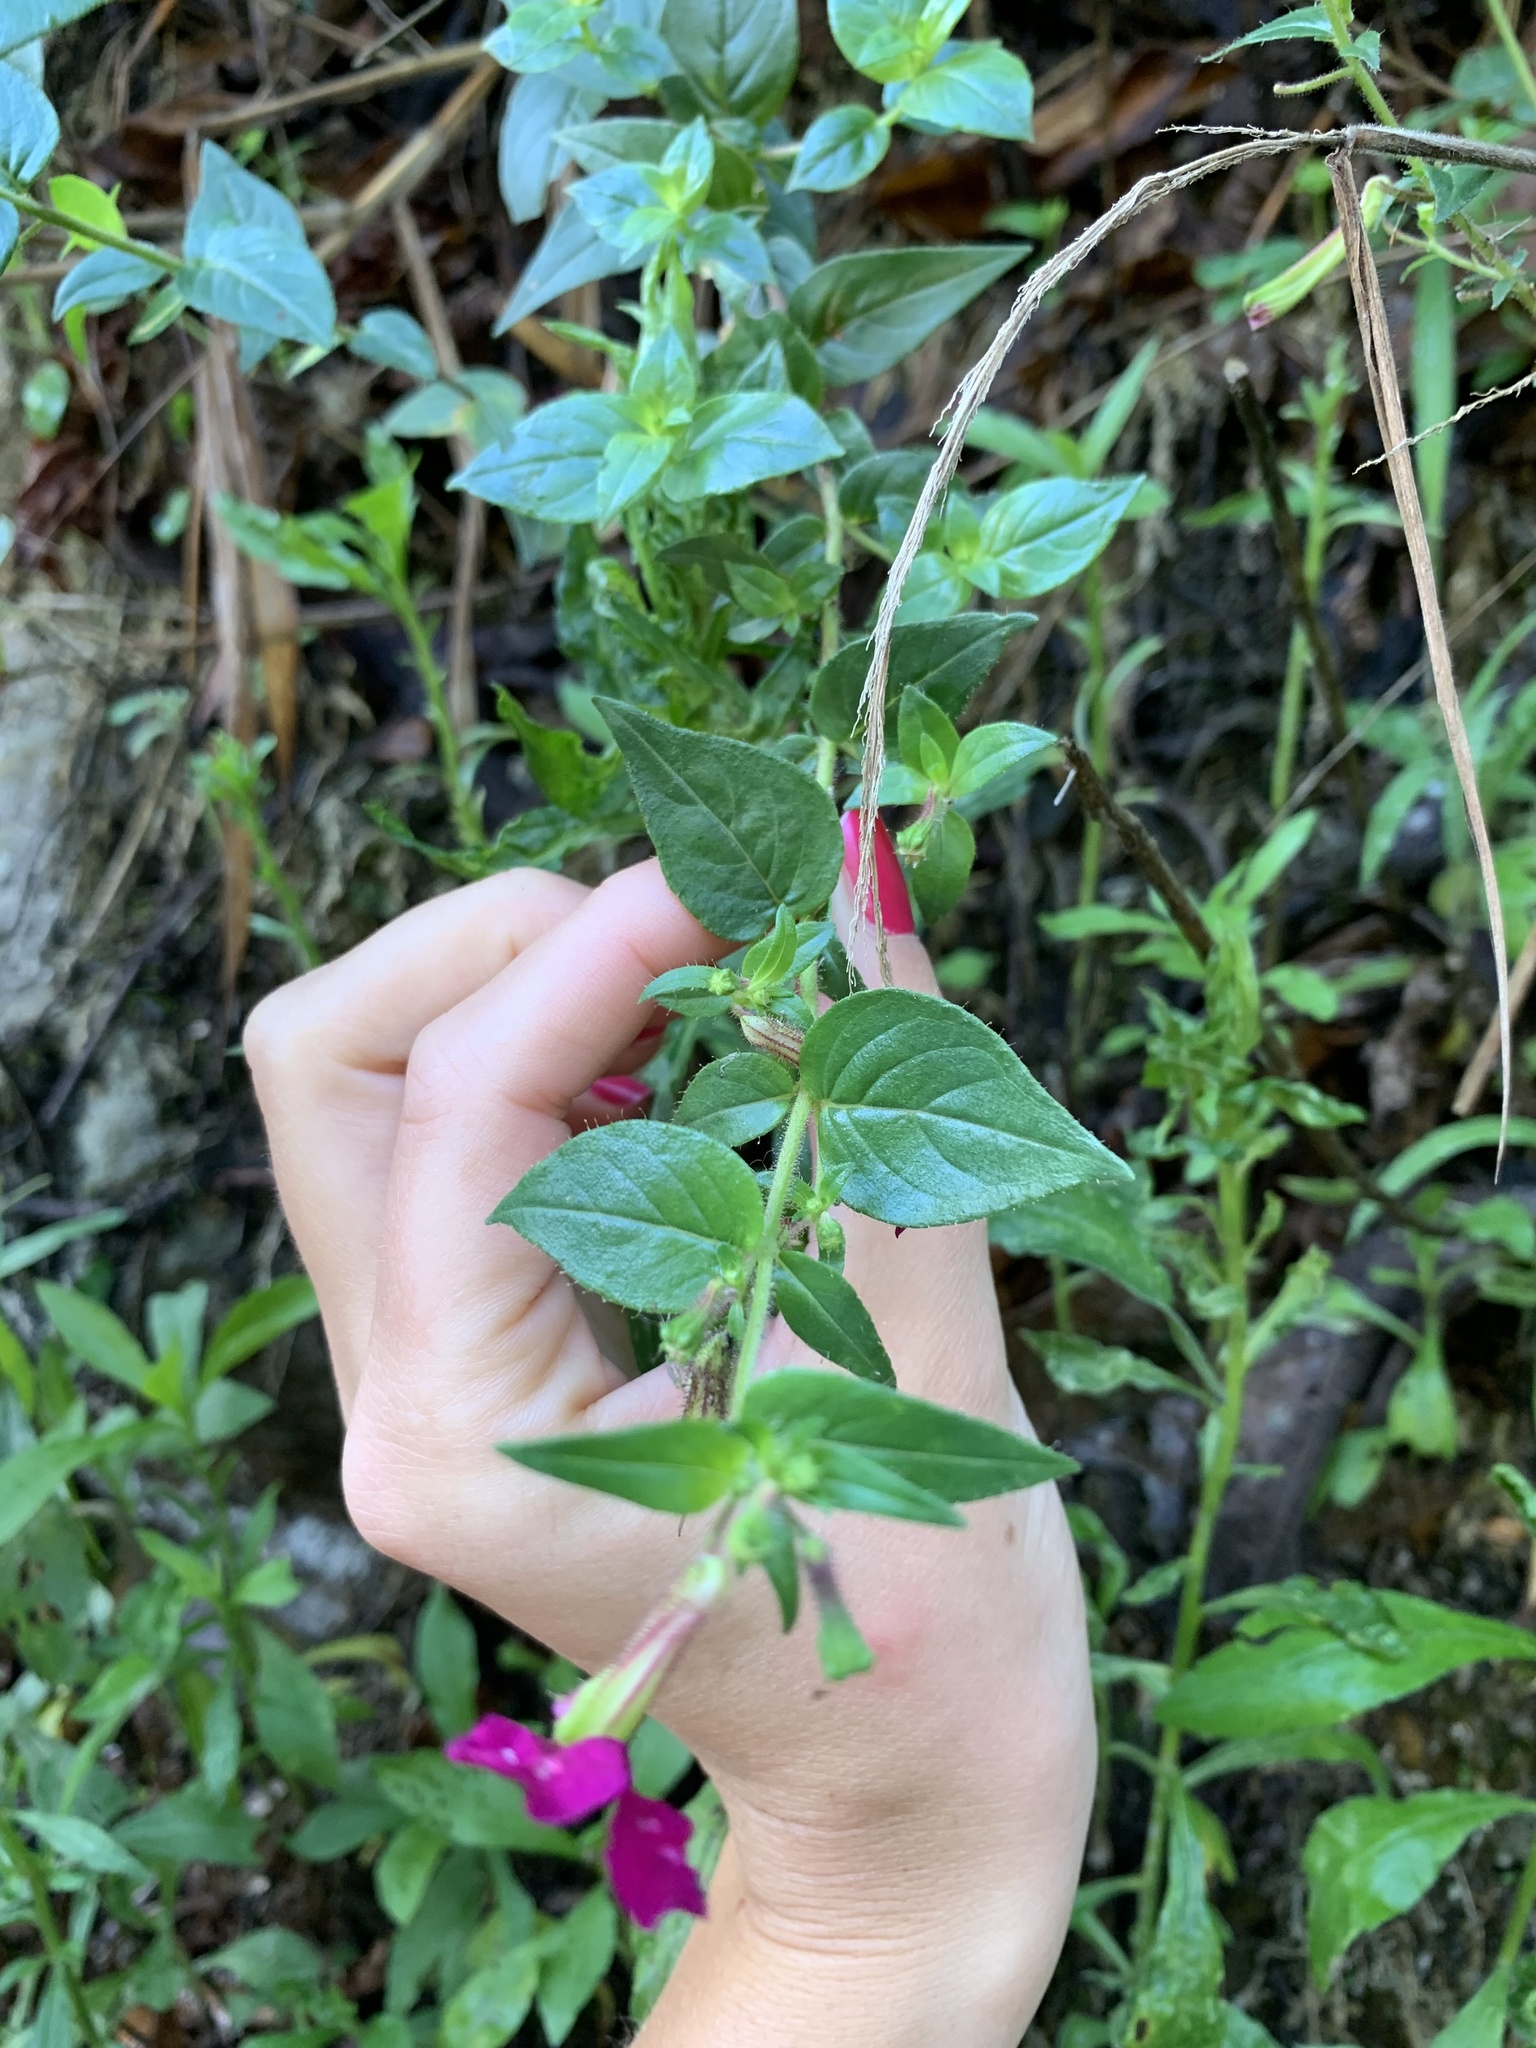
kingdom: Plantae
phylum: Tracheophyta
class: Magnoliopsida
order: Myrtales
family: Lythraceae
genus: Cuphea
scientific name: Cuphea cordata
